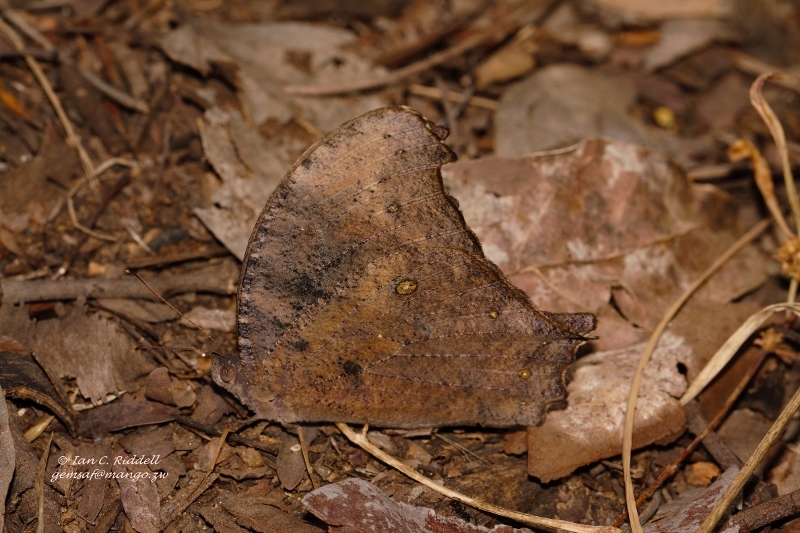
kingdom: Animalia
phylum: Arthropoda
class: Insecta
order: Lepidoptera
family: Nymphalidae
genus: Melanitis
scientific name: Melanitis leda
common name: Twilight brown
